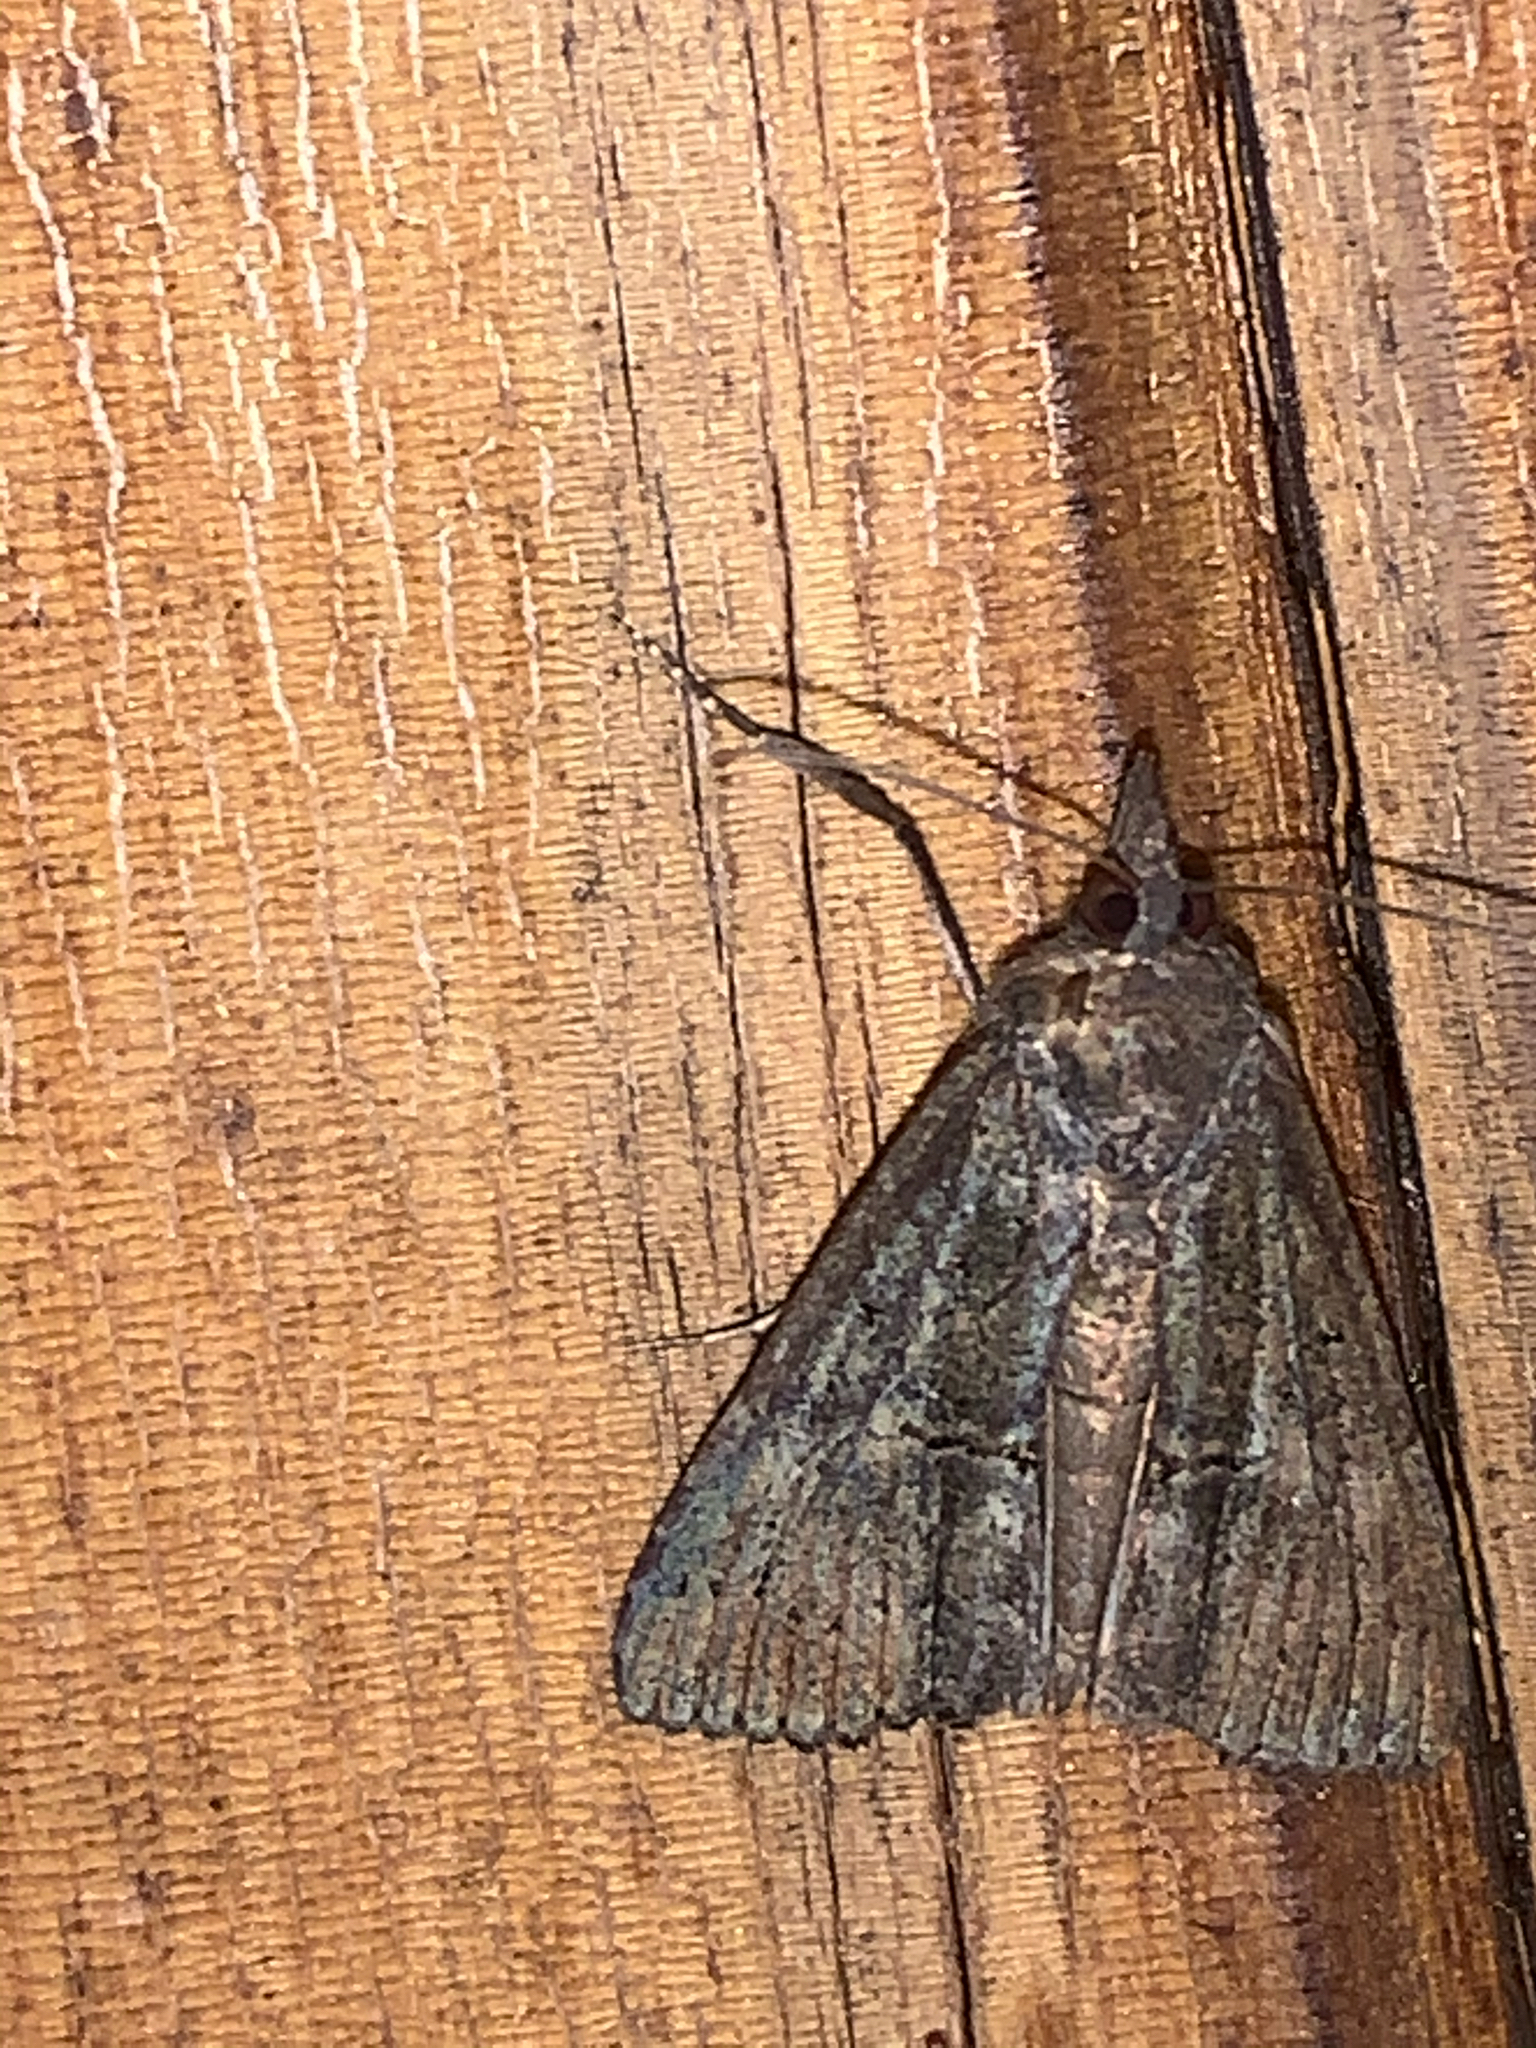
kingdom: Animalia
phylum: Arthropoda
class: Insecta
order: Lepidoptera
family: Erebidae
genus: Hypena
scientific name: Hypena scabra
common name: Green cloverworm
